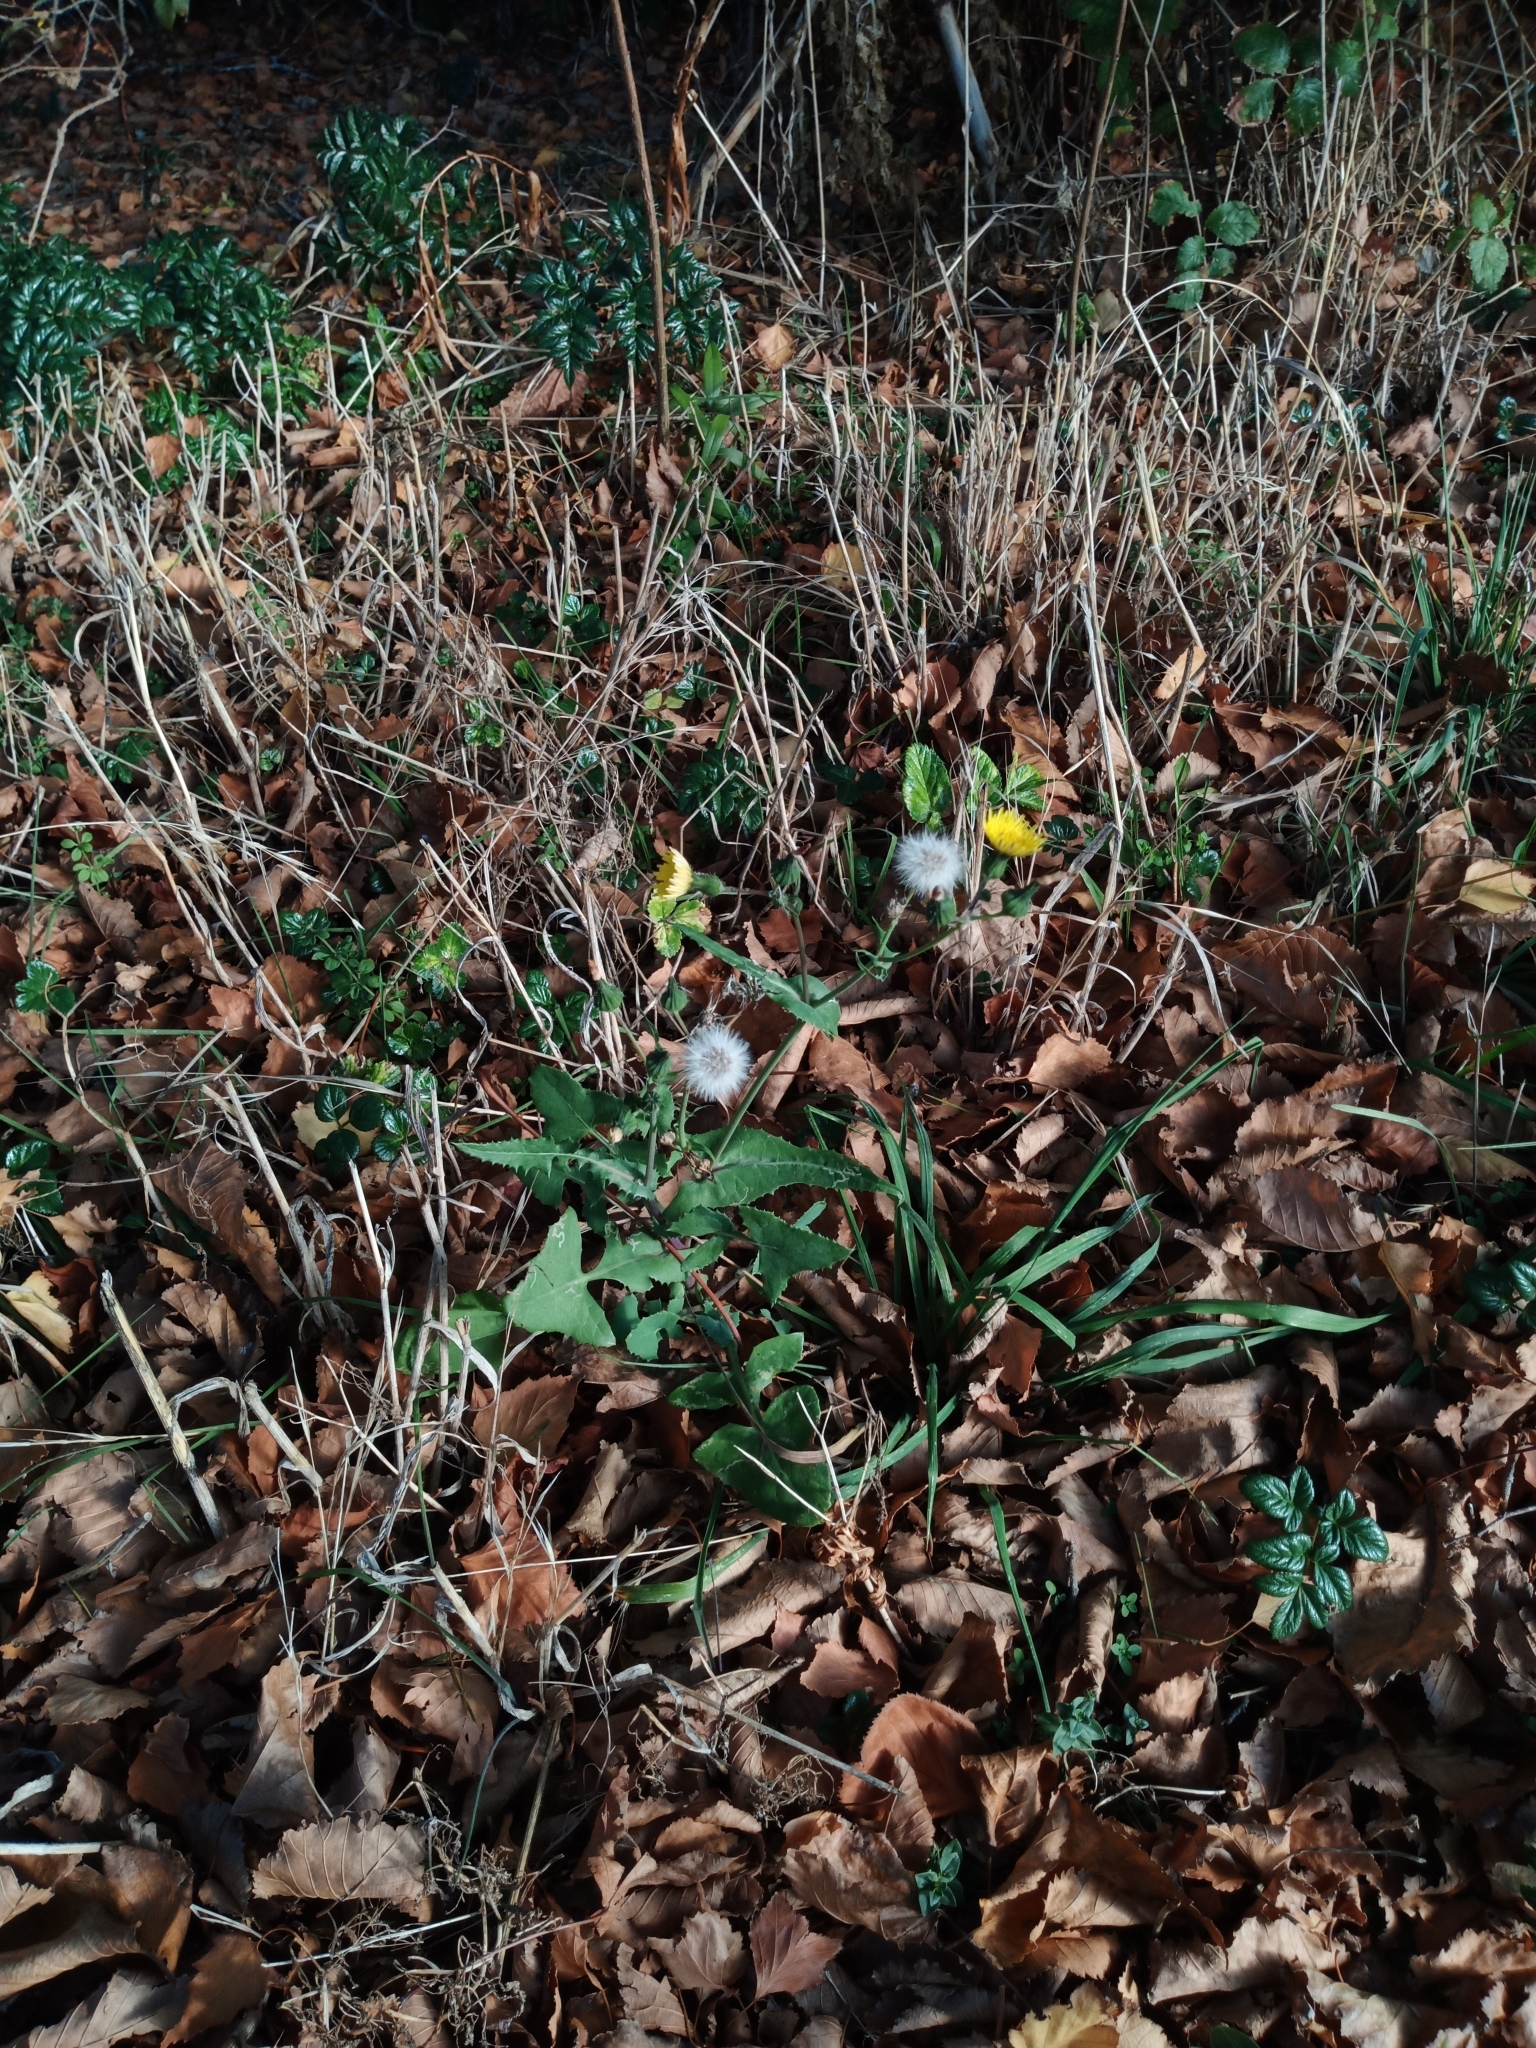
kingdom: Plantae
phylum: Tracheophyta
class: Magnoliopsida
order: Asterales
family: Asteraceae
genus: Sonchus
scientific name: Sonchus oleraceus
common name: Common sowthistle
